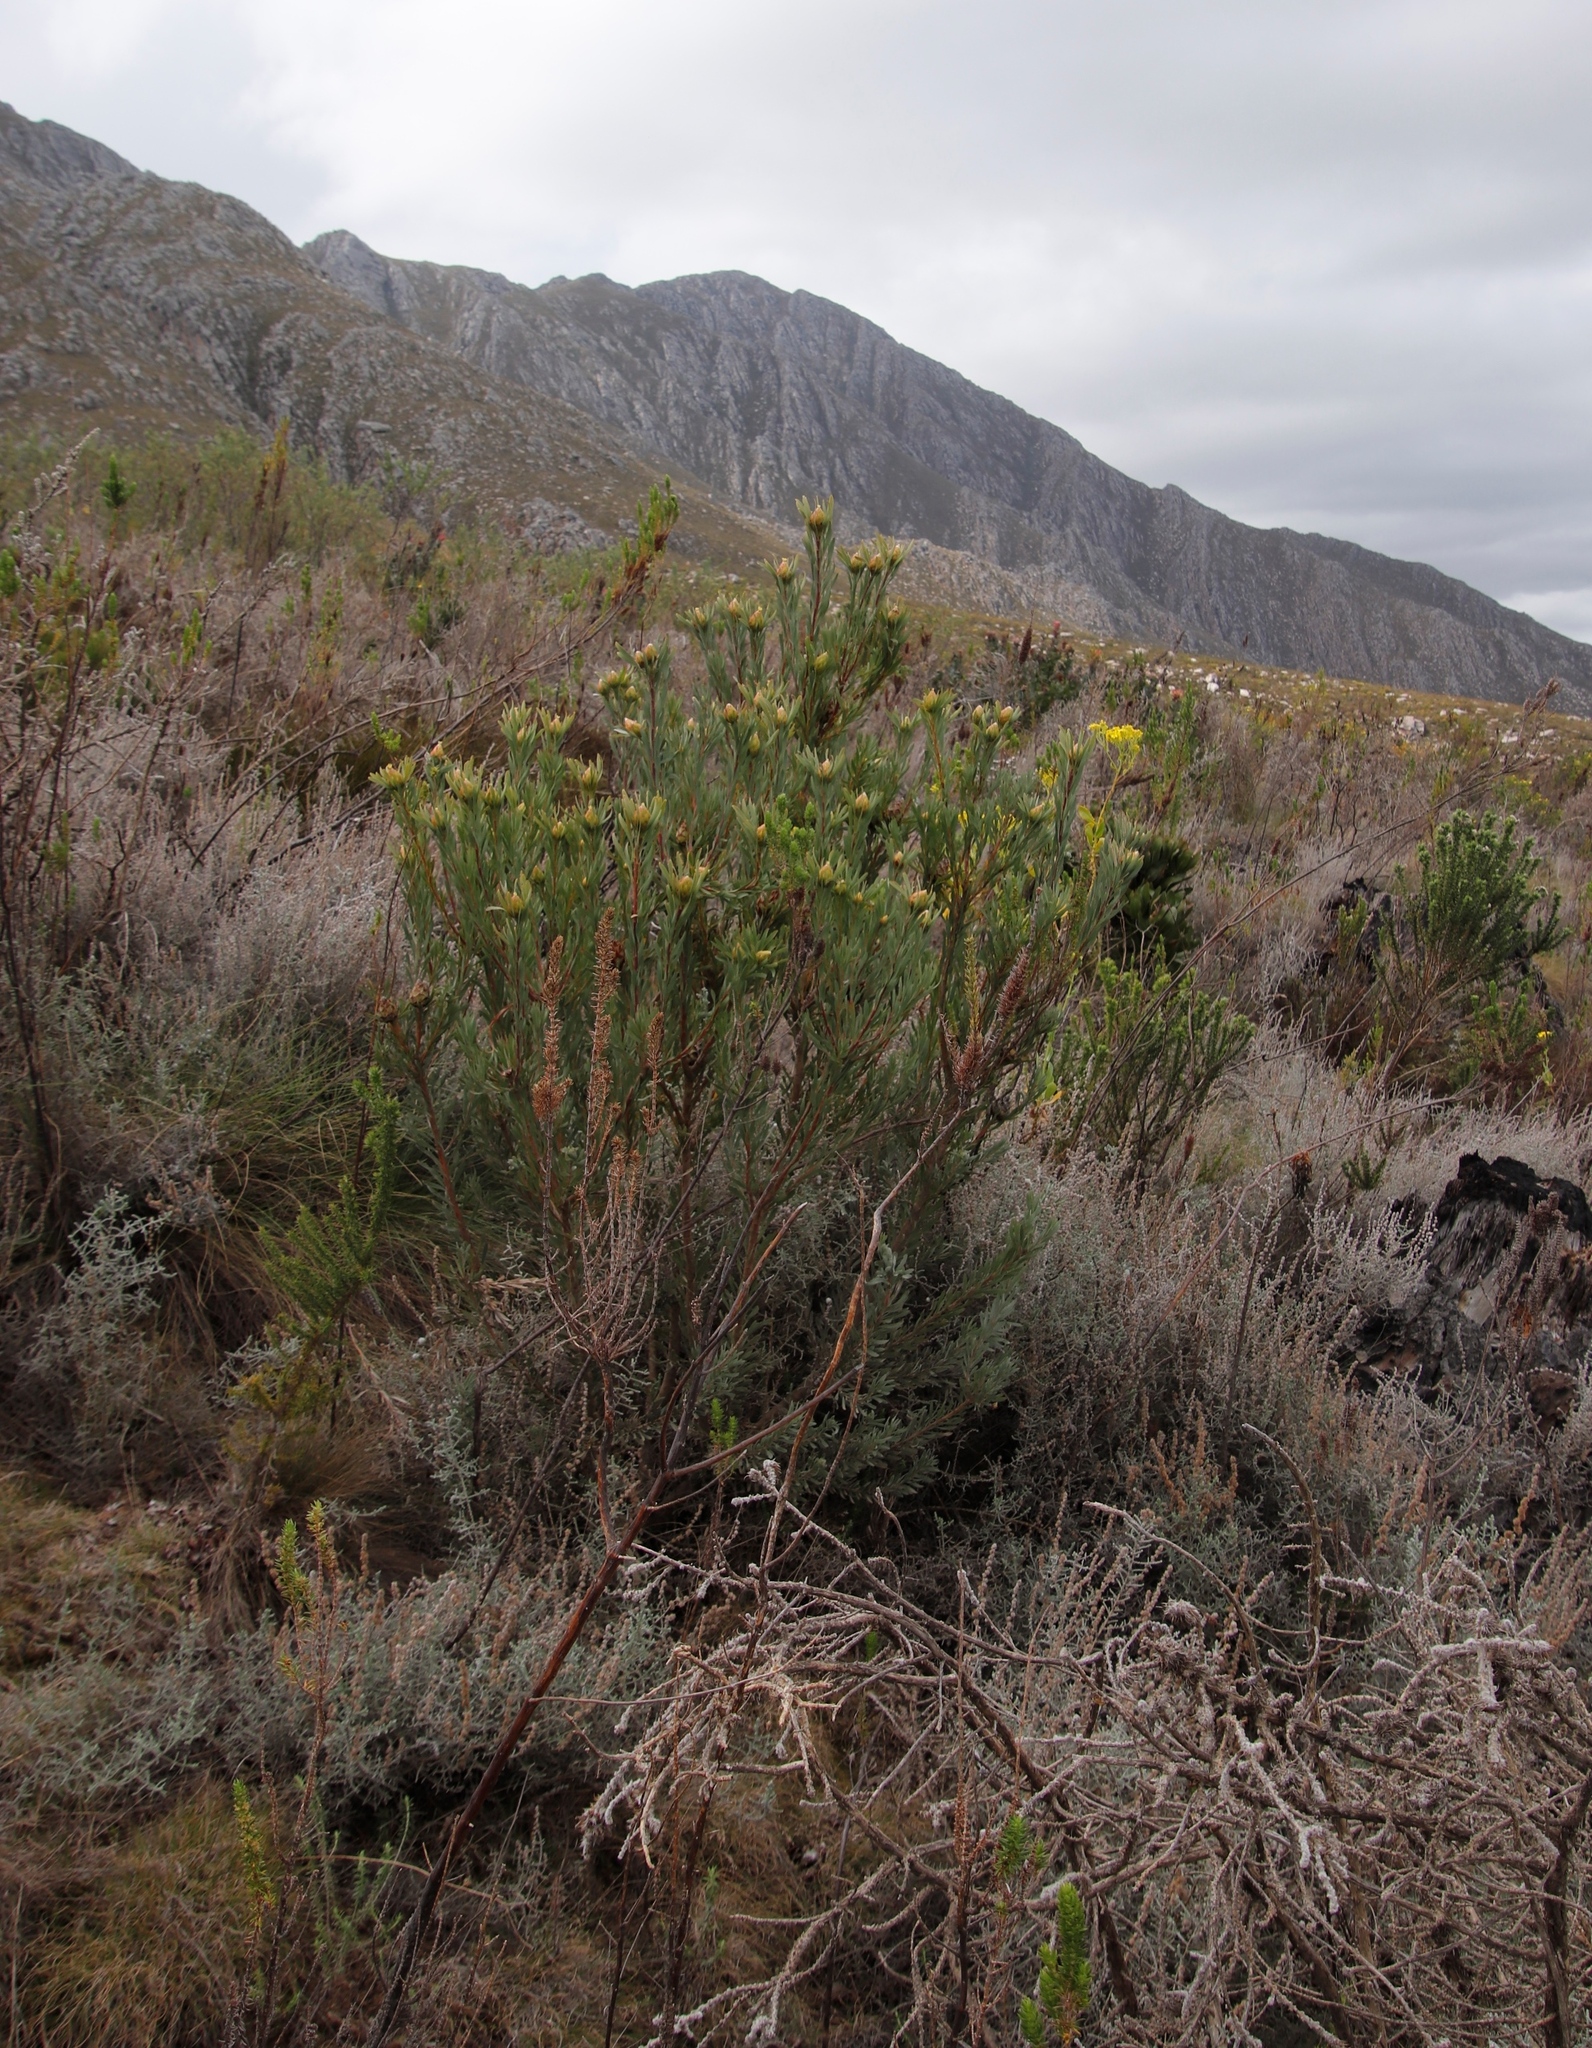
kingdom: Plantae
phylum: Tracheophyta
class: Magnoliopsida
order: Proteales
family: Proteaceae
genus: Leucadendron
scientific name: Leucadendron rubrum
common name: Spinning top
